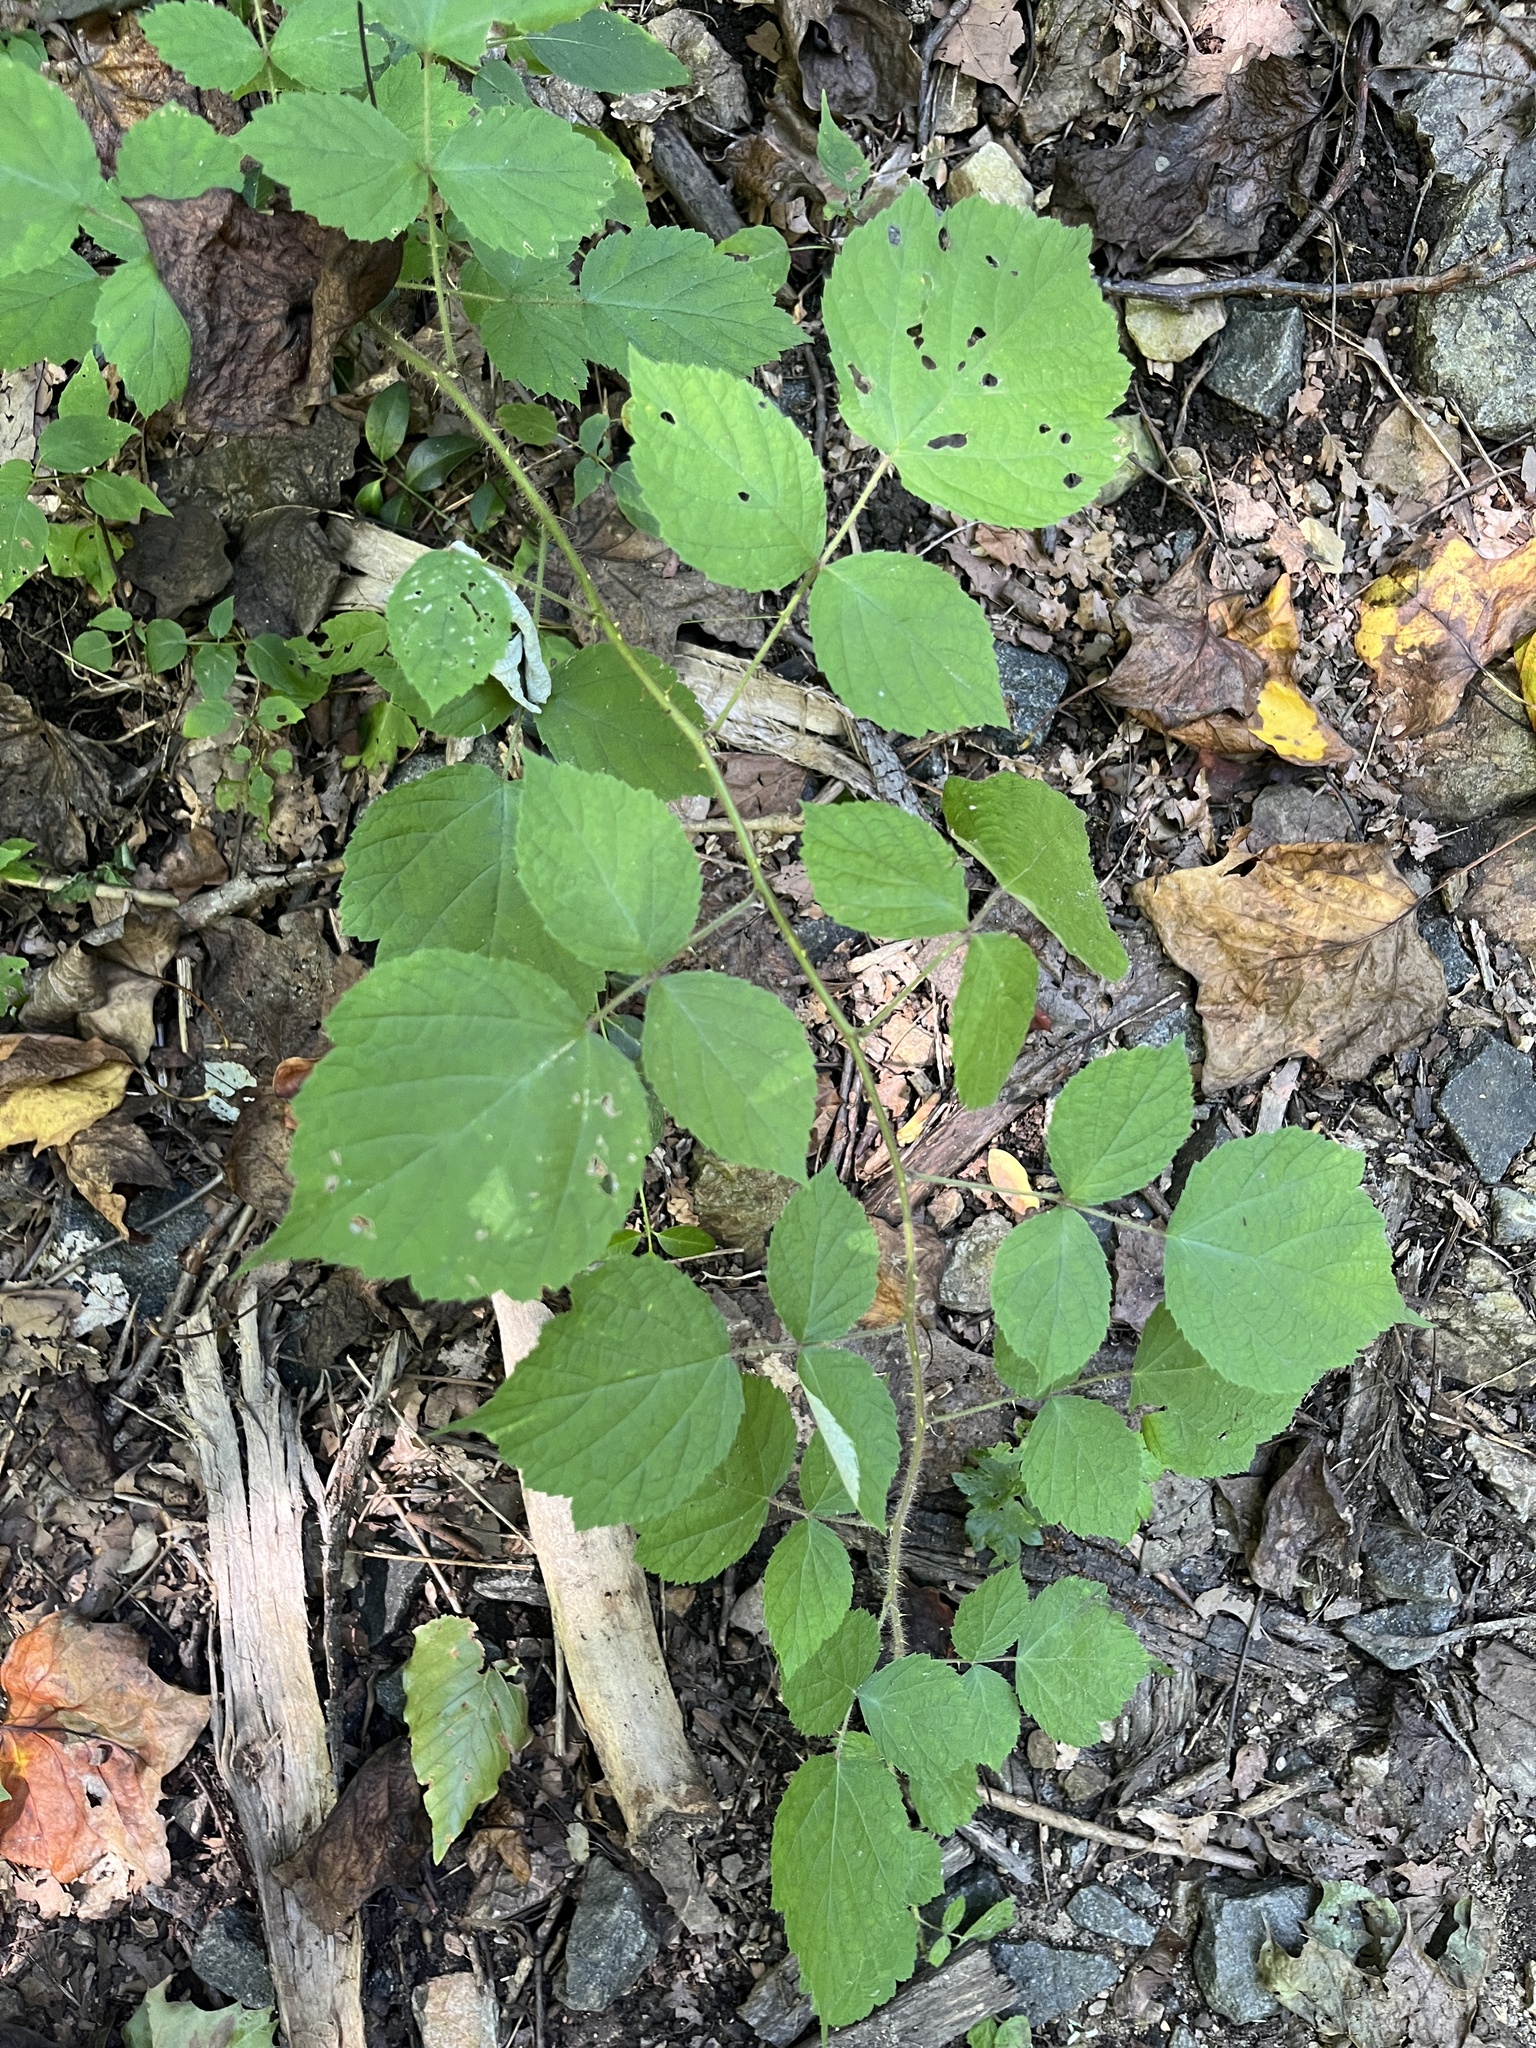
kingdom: Plantae
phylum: Tracheophyta
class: Magnoliopsida
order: Rosales
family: Rosaceae
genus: Rubus
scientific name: Rubus phoenicolasius
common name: Japanese wineberry
